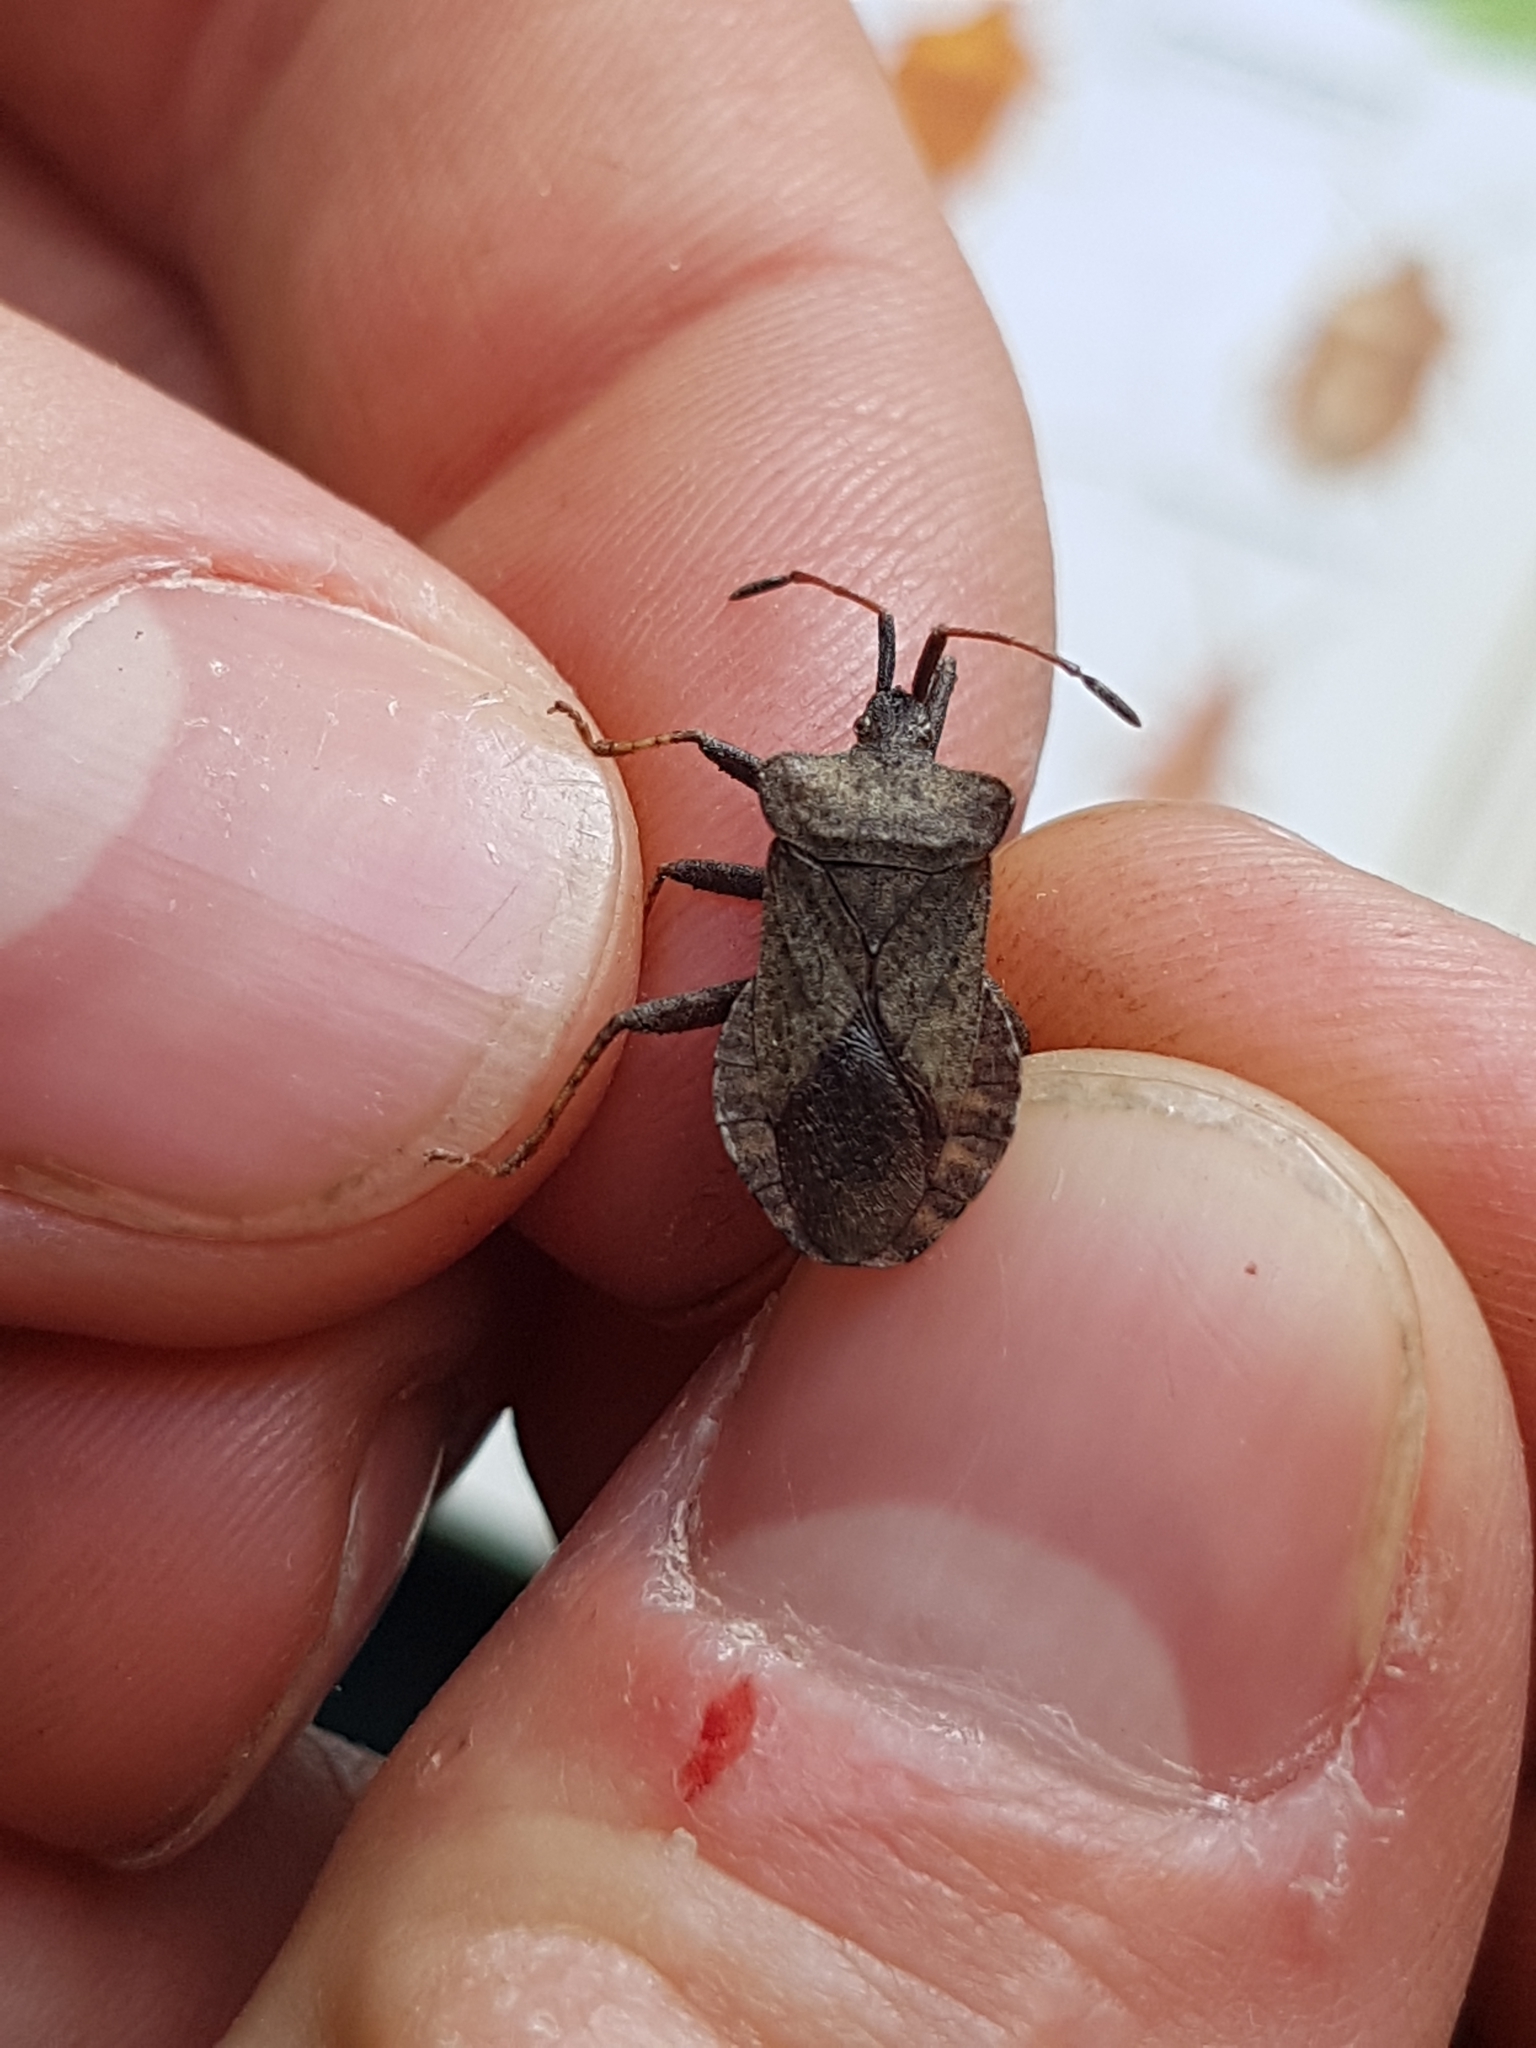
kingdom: Animalia
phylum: Arthropoda
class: Insecta
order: Hemiptera
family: Coreidae
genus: Coreus
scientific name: Coreus marginatus
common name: Dock bug
